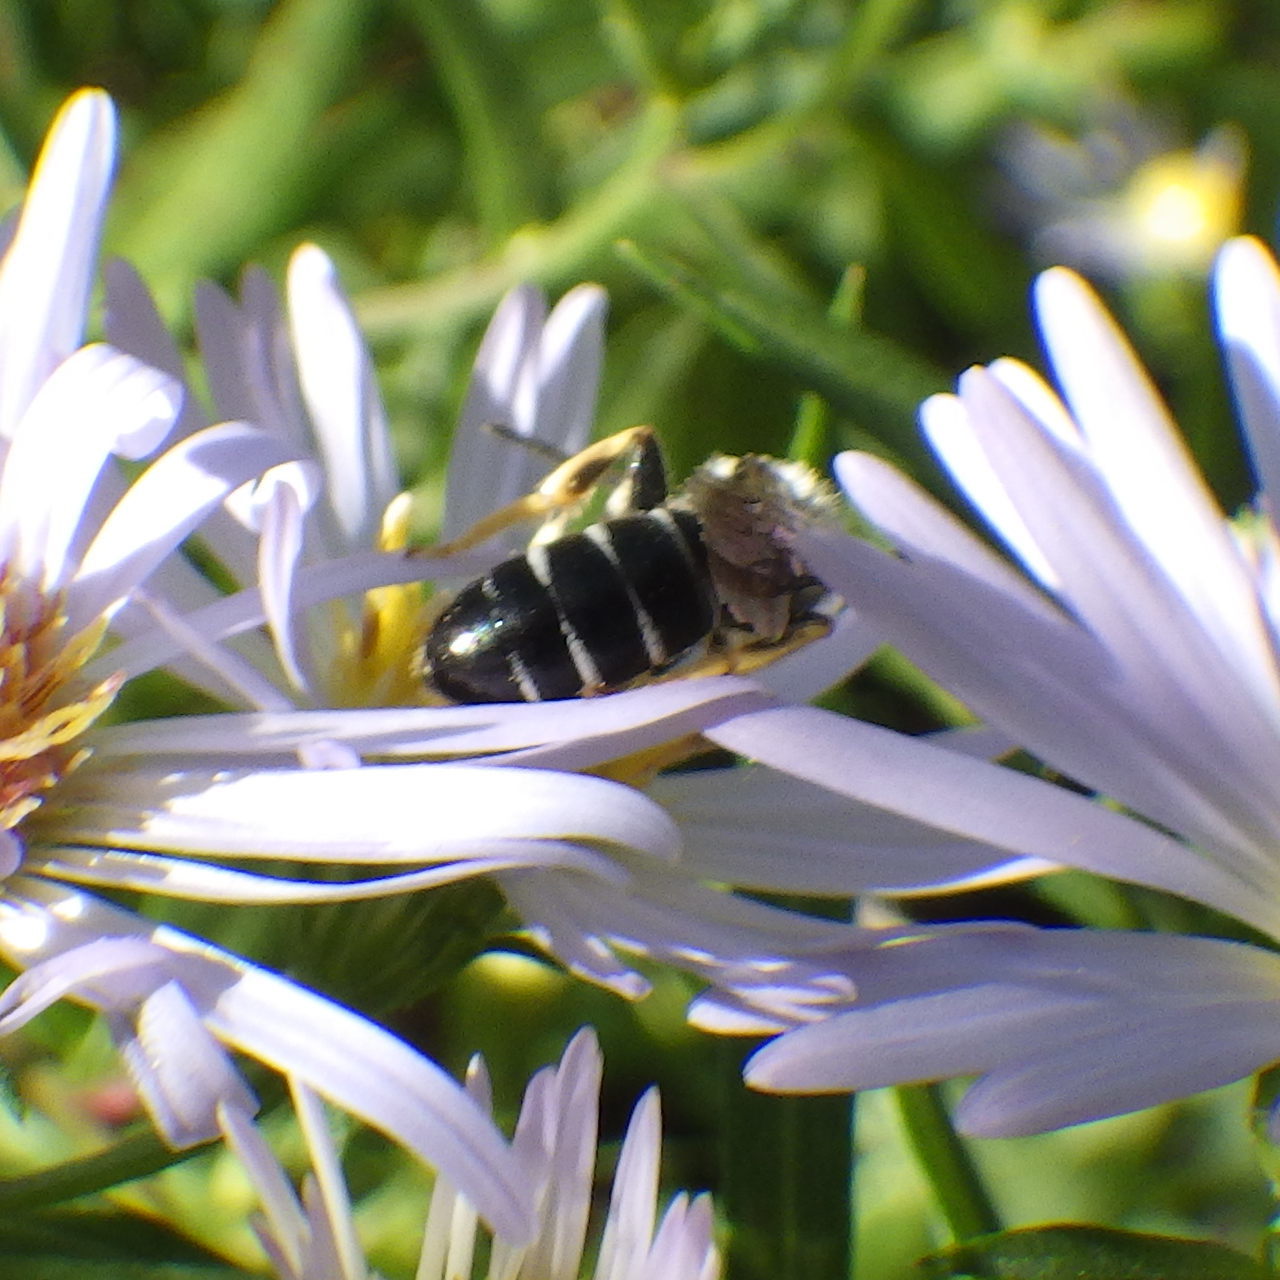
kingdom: Animalia
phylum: Arthropoda
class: Insecta
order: Hymenoptera
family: Halictidae
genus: Halictus
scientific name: Halictus rubicundus
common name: Orange-legged furrow bee
